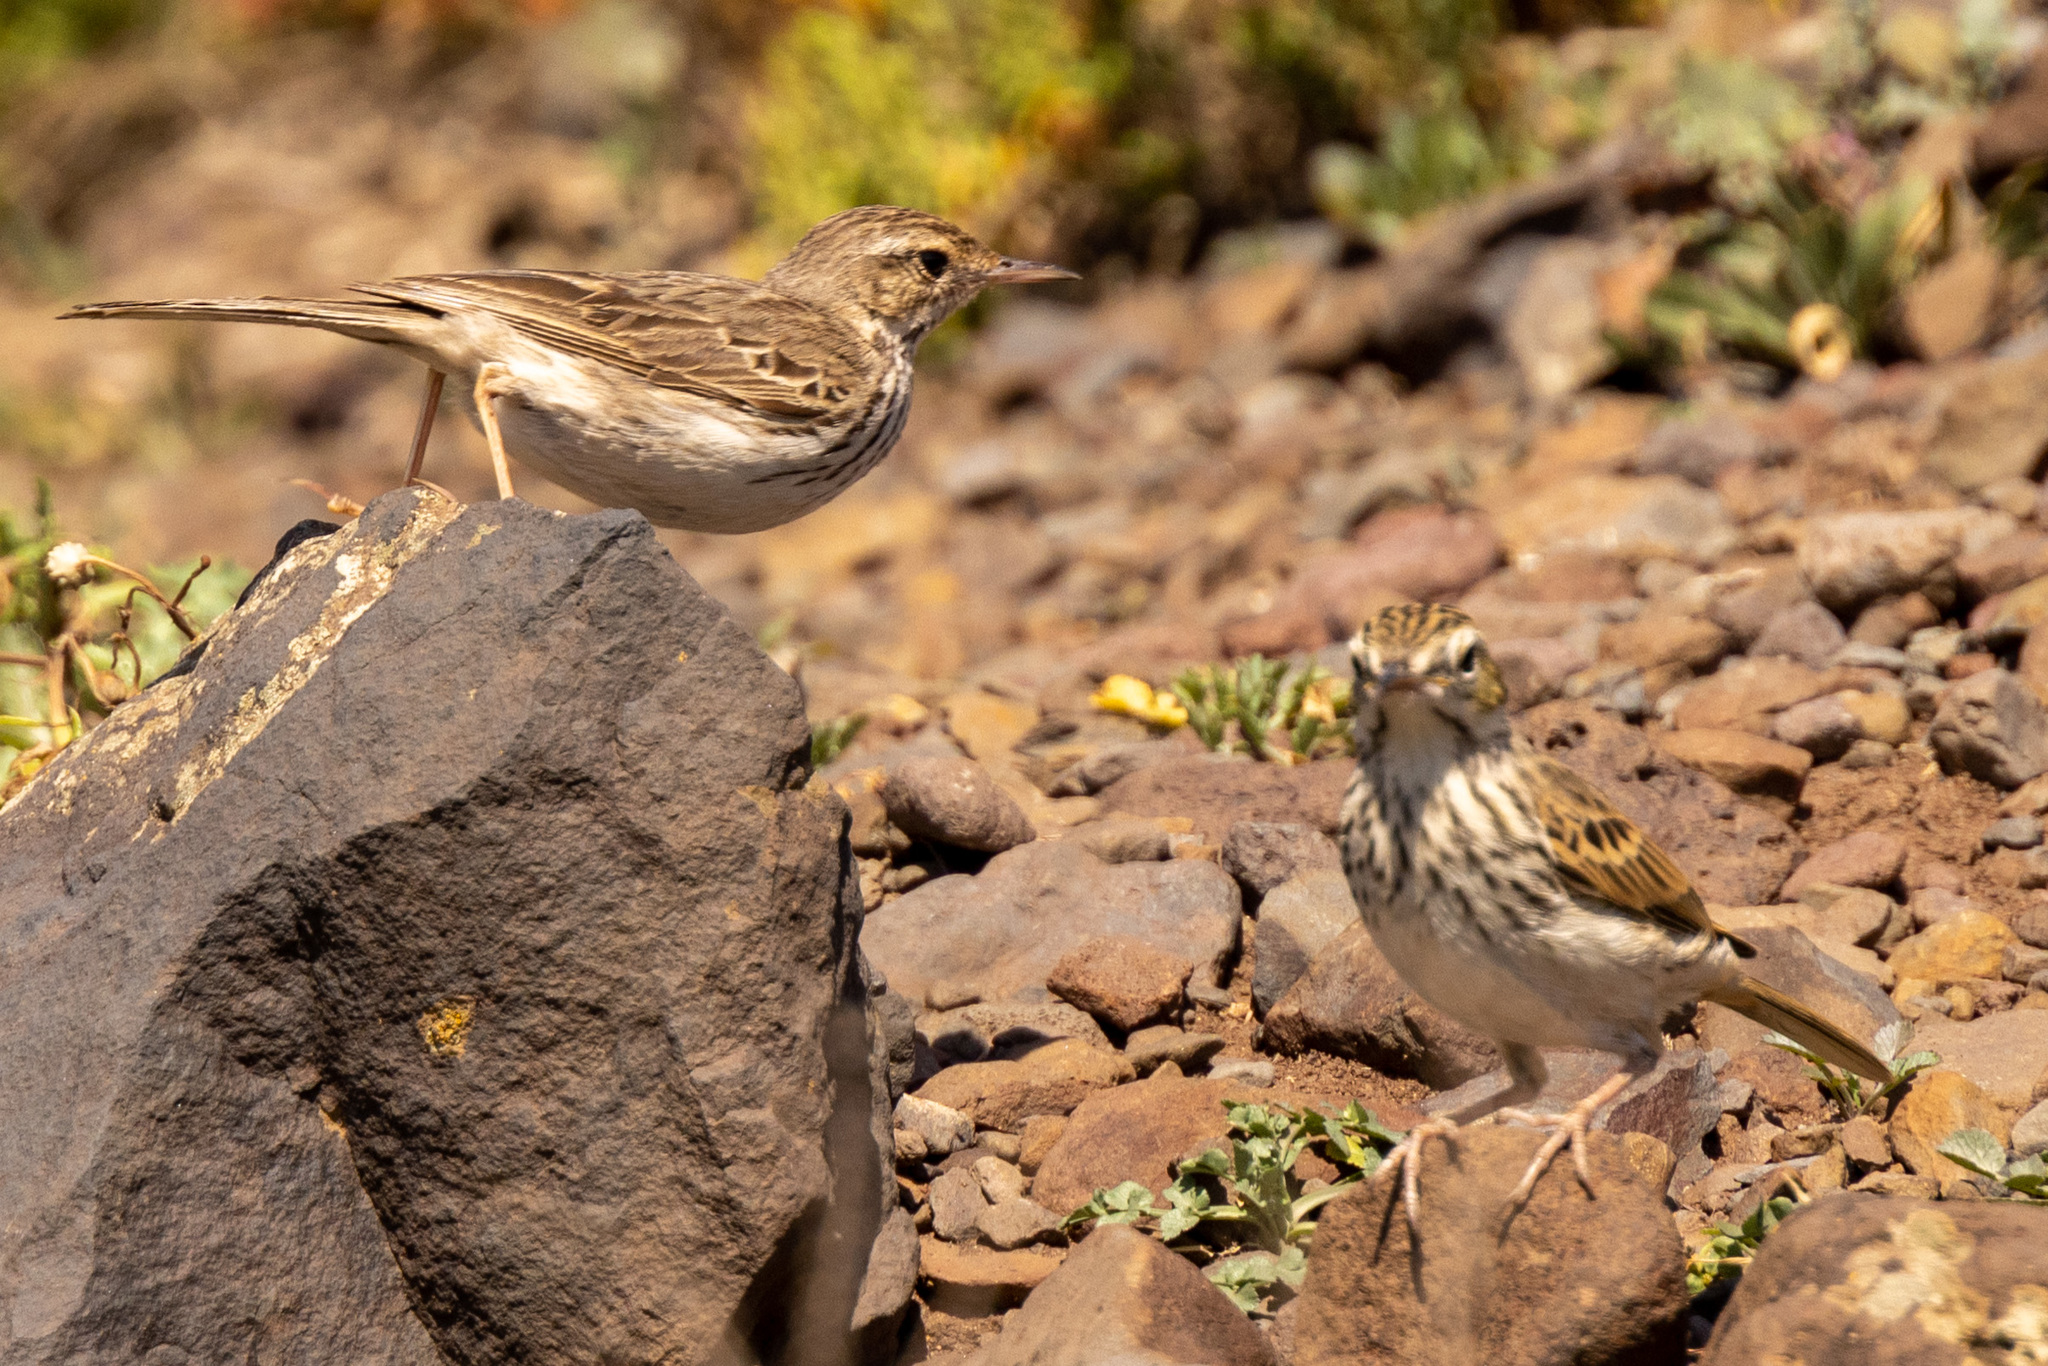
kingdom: Animalia
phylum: Chordata
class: Aves
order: Passeriformes
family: Motacillidae
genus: Anthus
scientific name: Anthus berthelotii
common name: Berthelot's pipit
